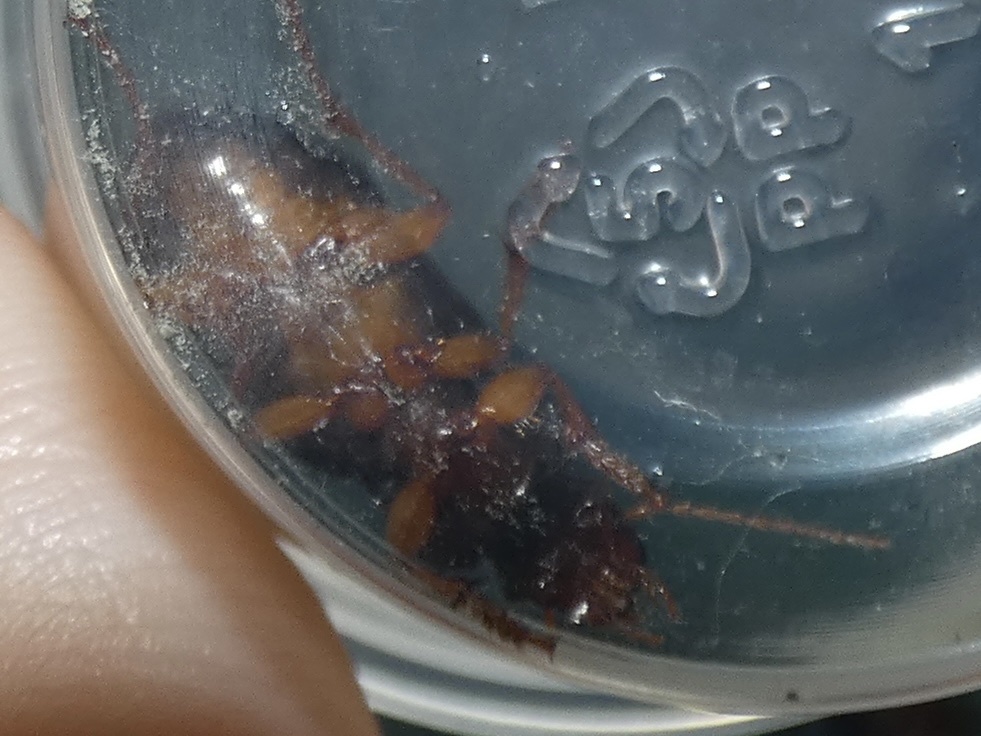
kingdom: Animalia
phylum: Arthropoda
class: Insecta
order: Coleoptera
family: Carabidae
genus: Harpalus
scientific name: Harpalus rufipes
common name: Strawberry harp ground beetle
